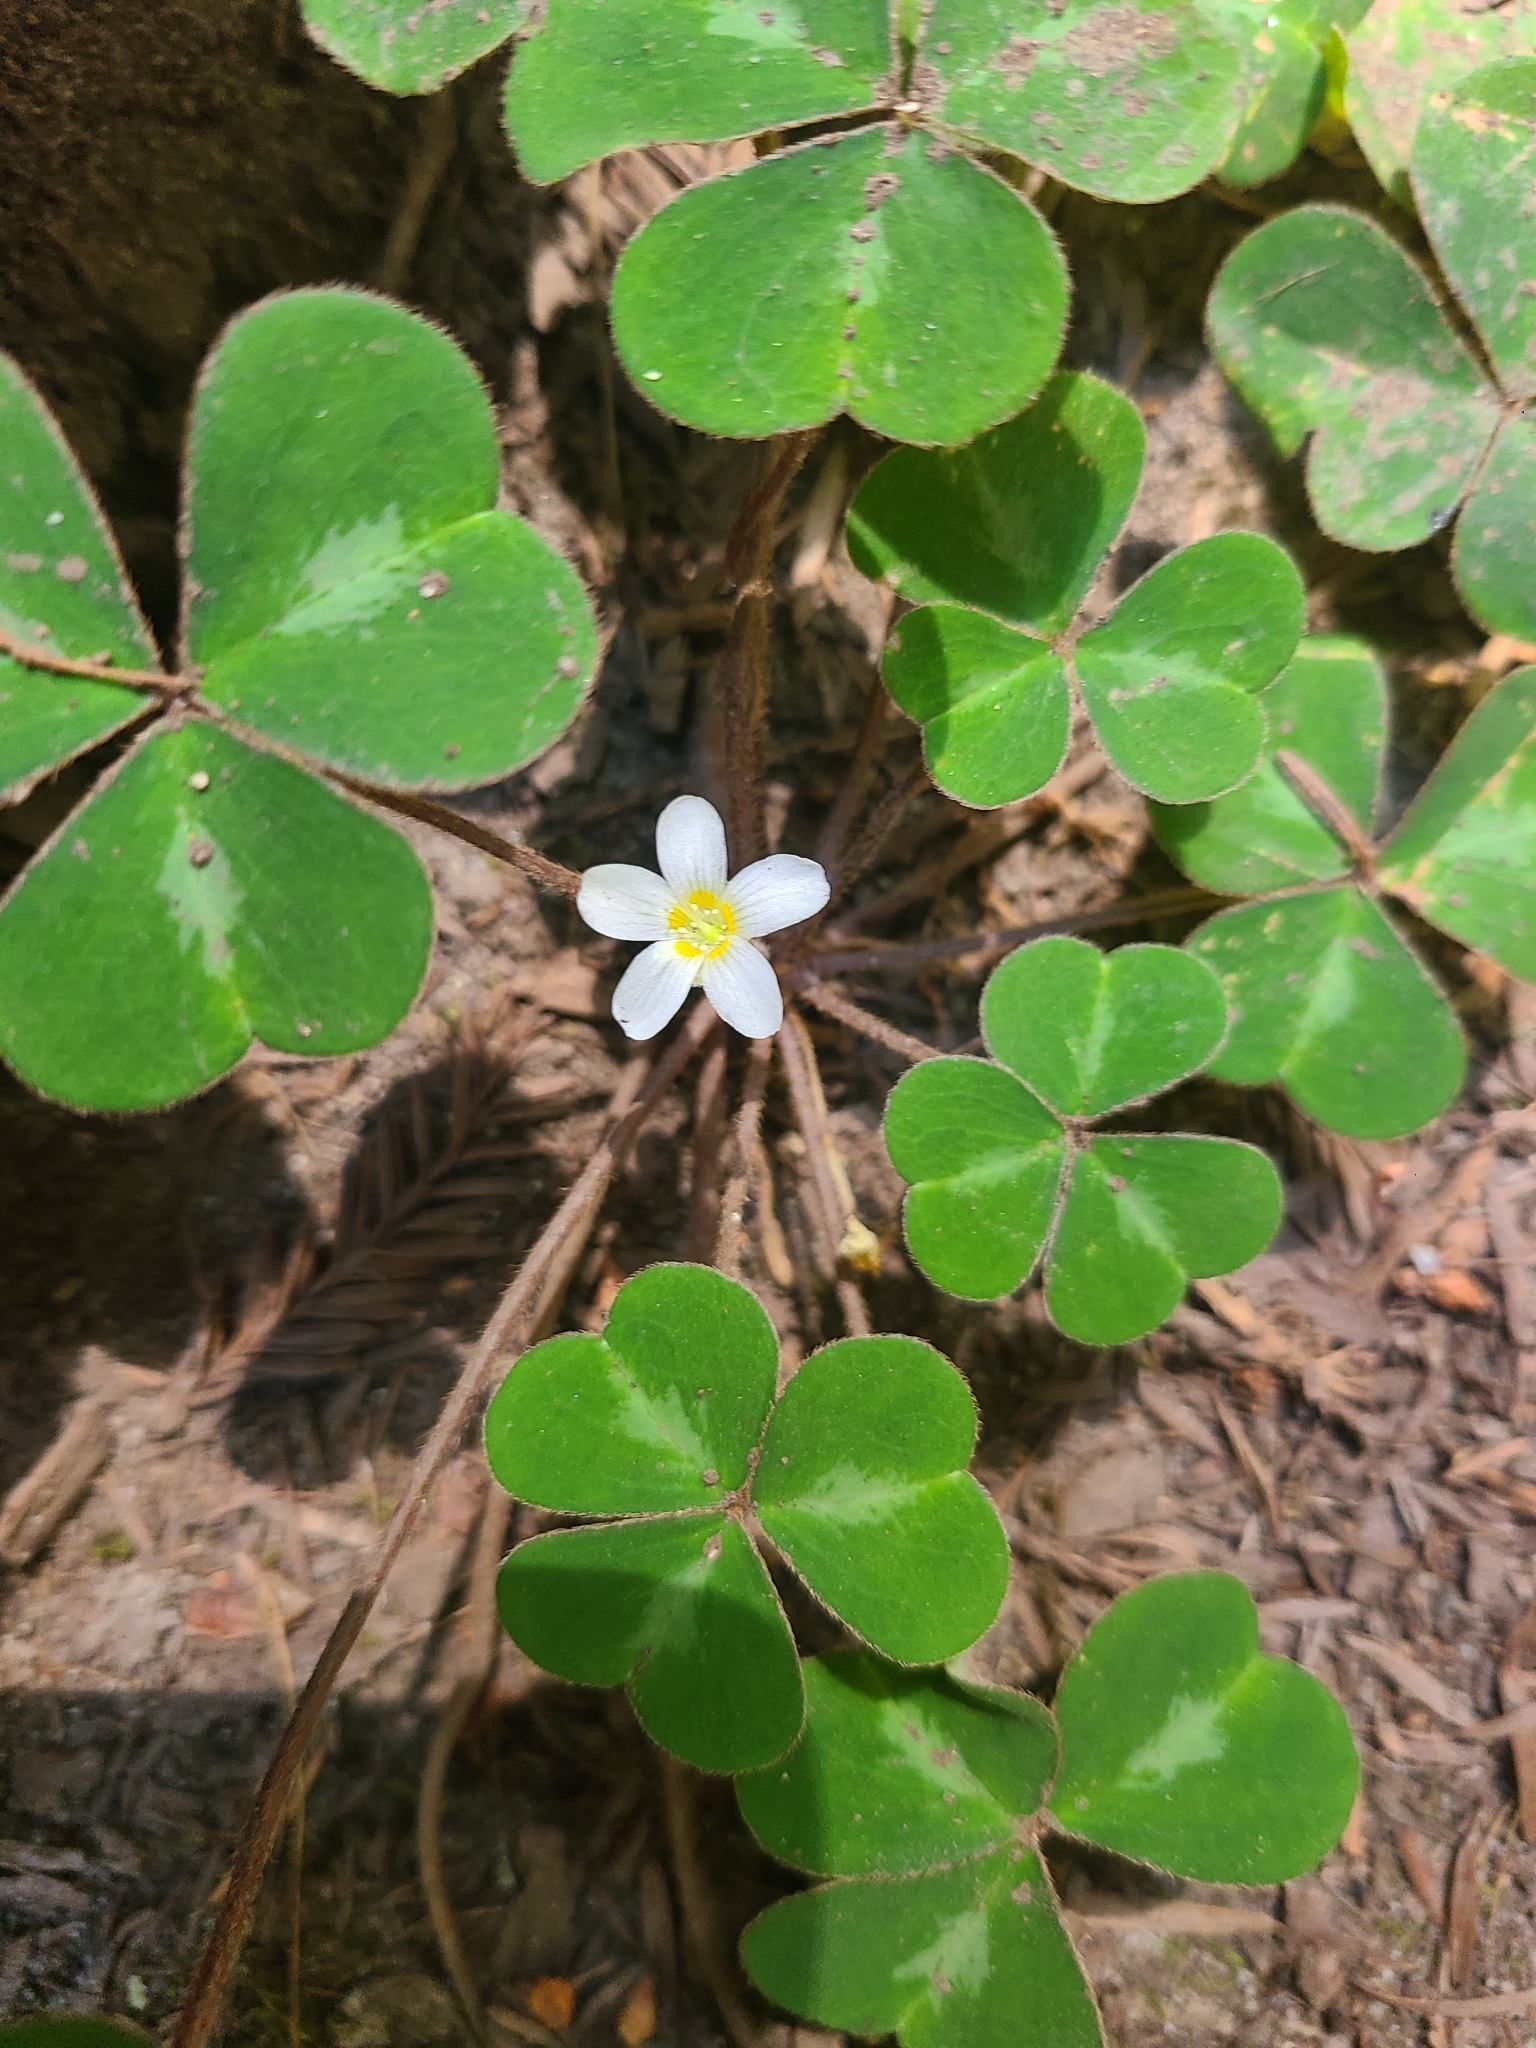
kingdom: Plantae
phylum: Tracheophyta
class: Magnoliopsida
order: Oxalidales
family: Oxalidaceae
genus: Oxalis
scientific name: Oxalis oregana
